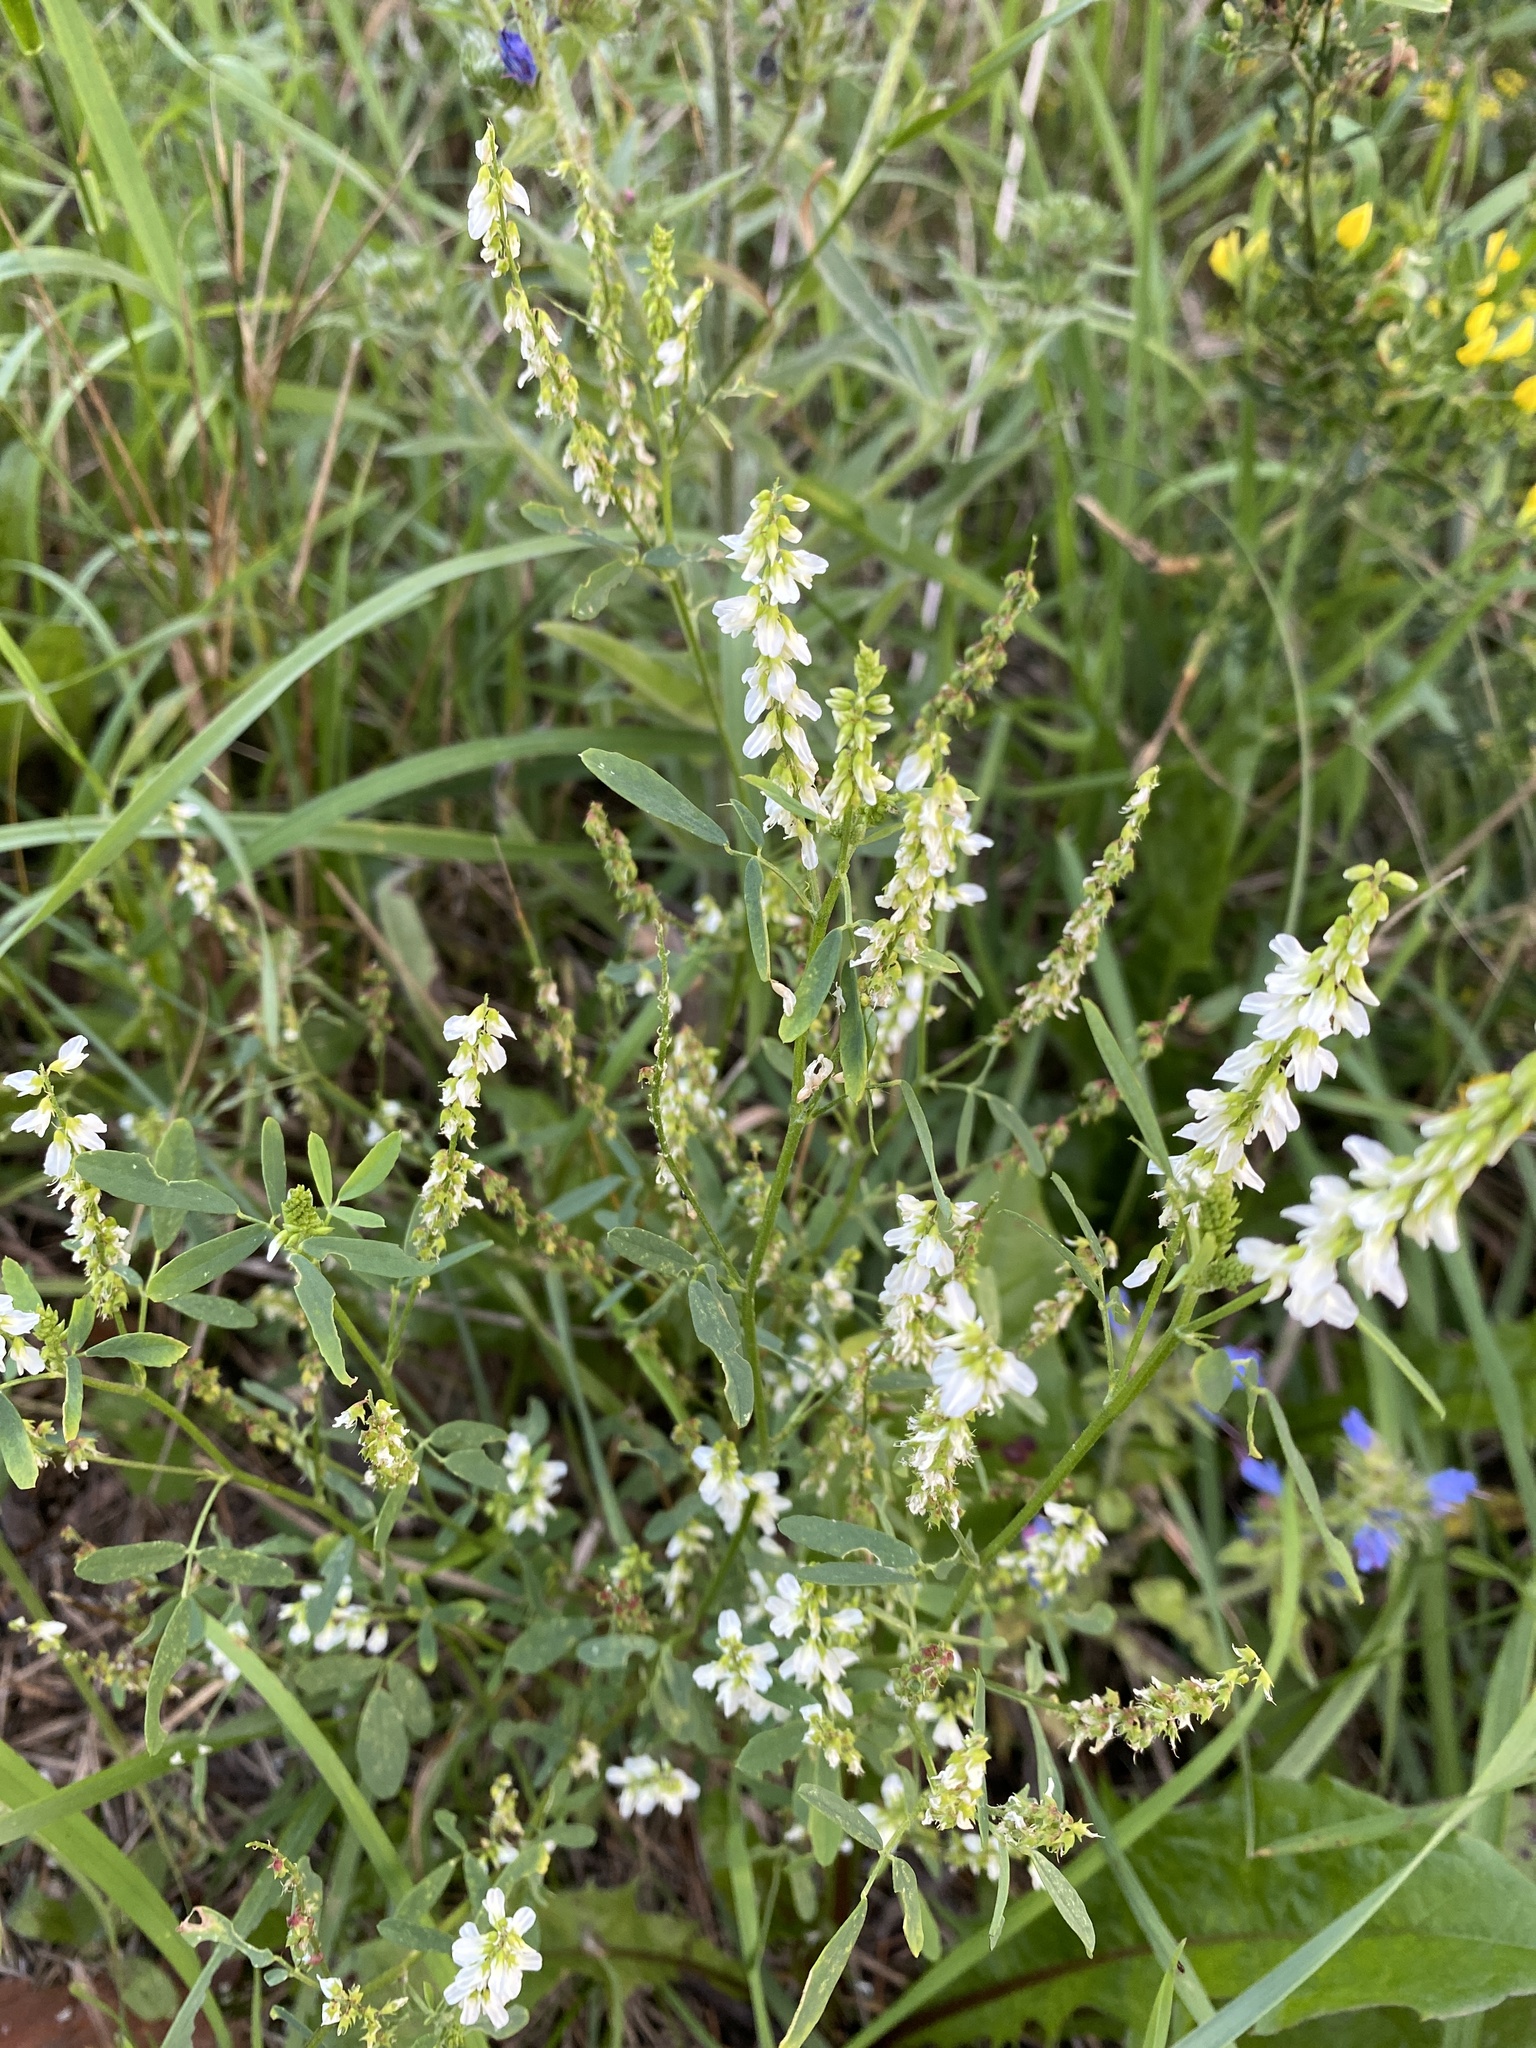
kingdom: Plantae
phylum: Tracheophyta
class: Magnoliopsida
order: Fabales
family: Fabaceae
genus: Melilotus
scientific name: Melilotus albus
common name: White melilot
